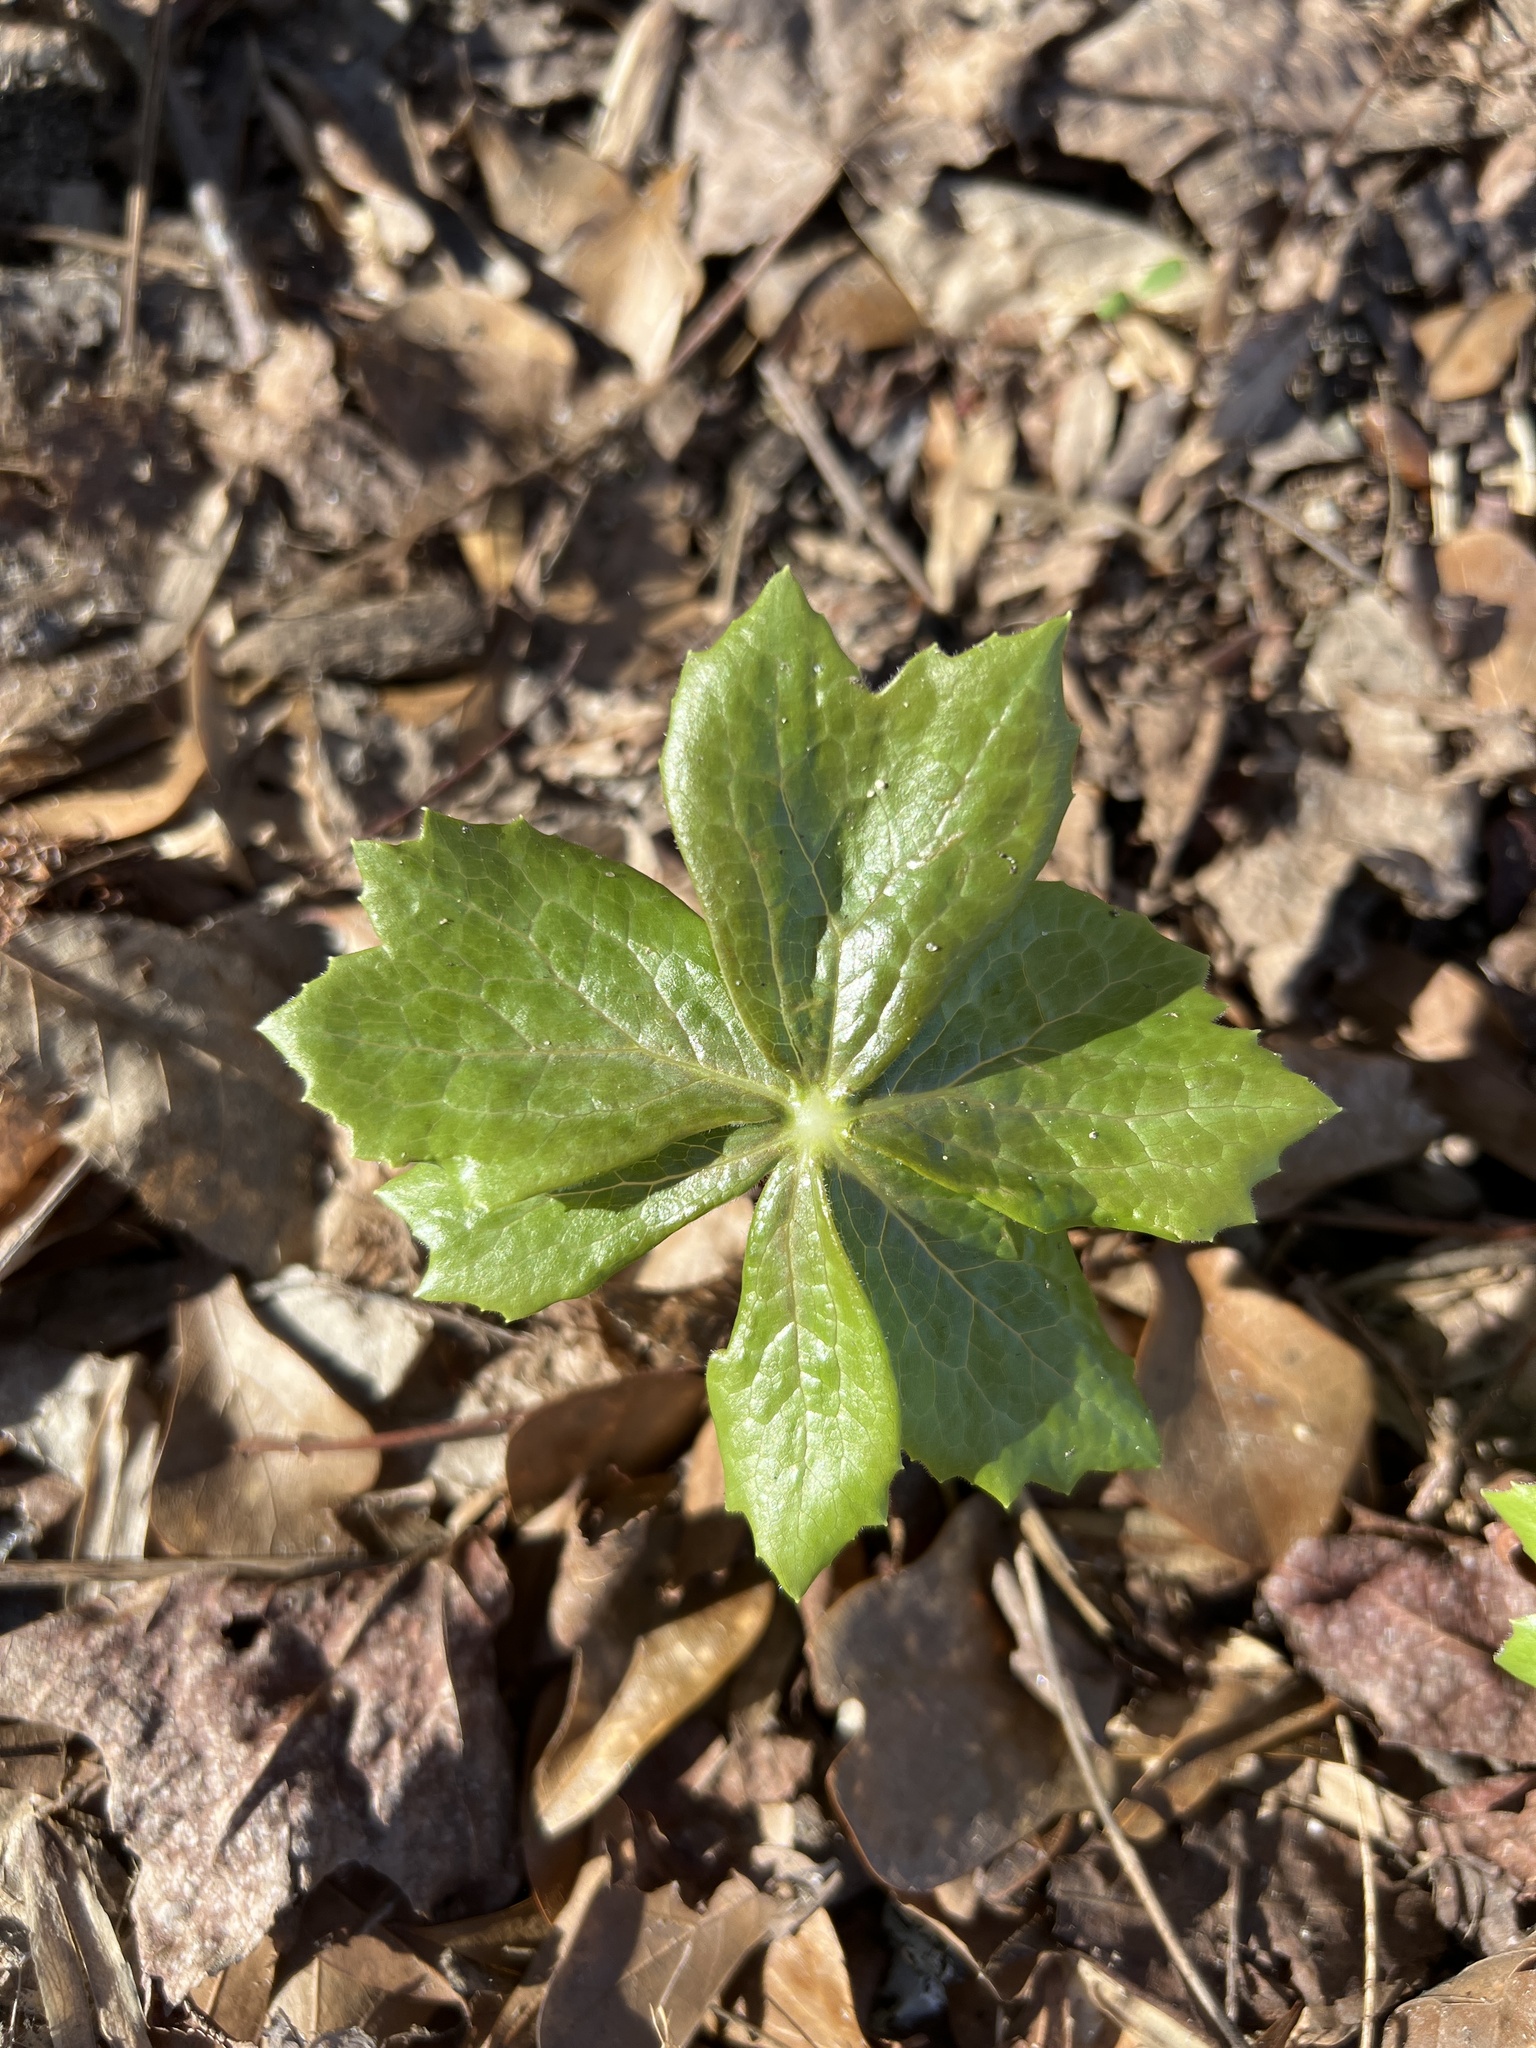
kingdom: Plantae
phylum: Tracheophyta
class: Magnoliopsida
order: Ranunculales
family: Berberidaceae
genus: Podophyllum
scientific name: Podophyllum peltatum
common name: Wild mandrake
